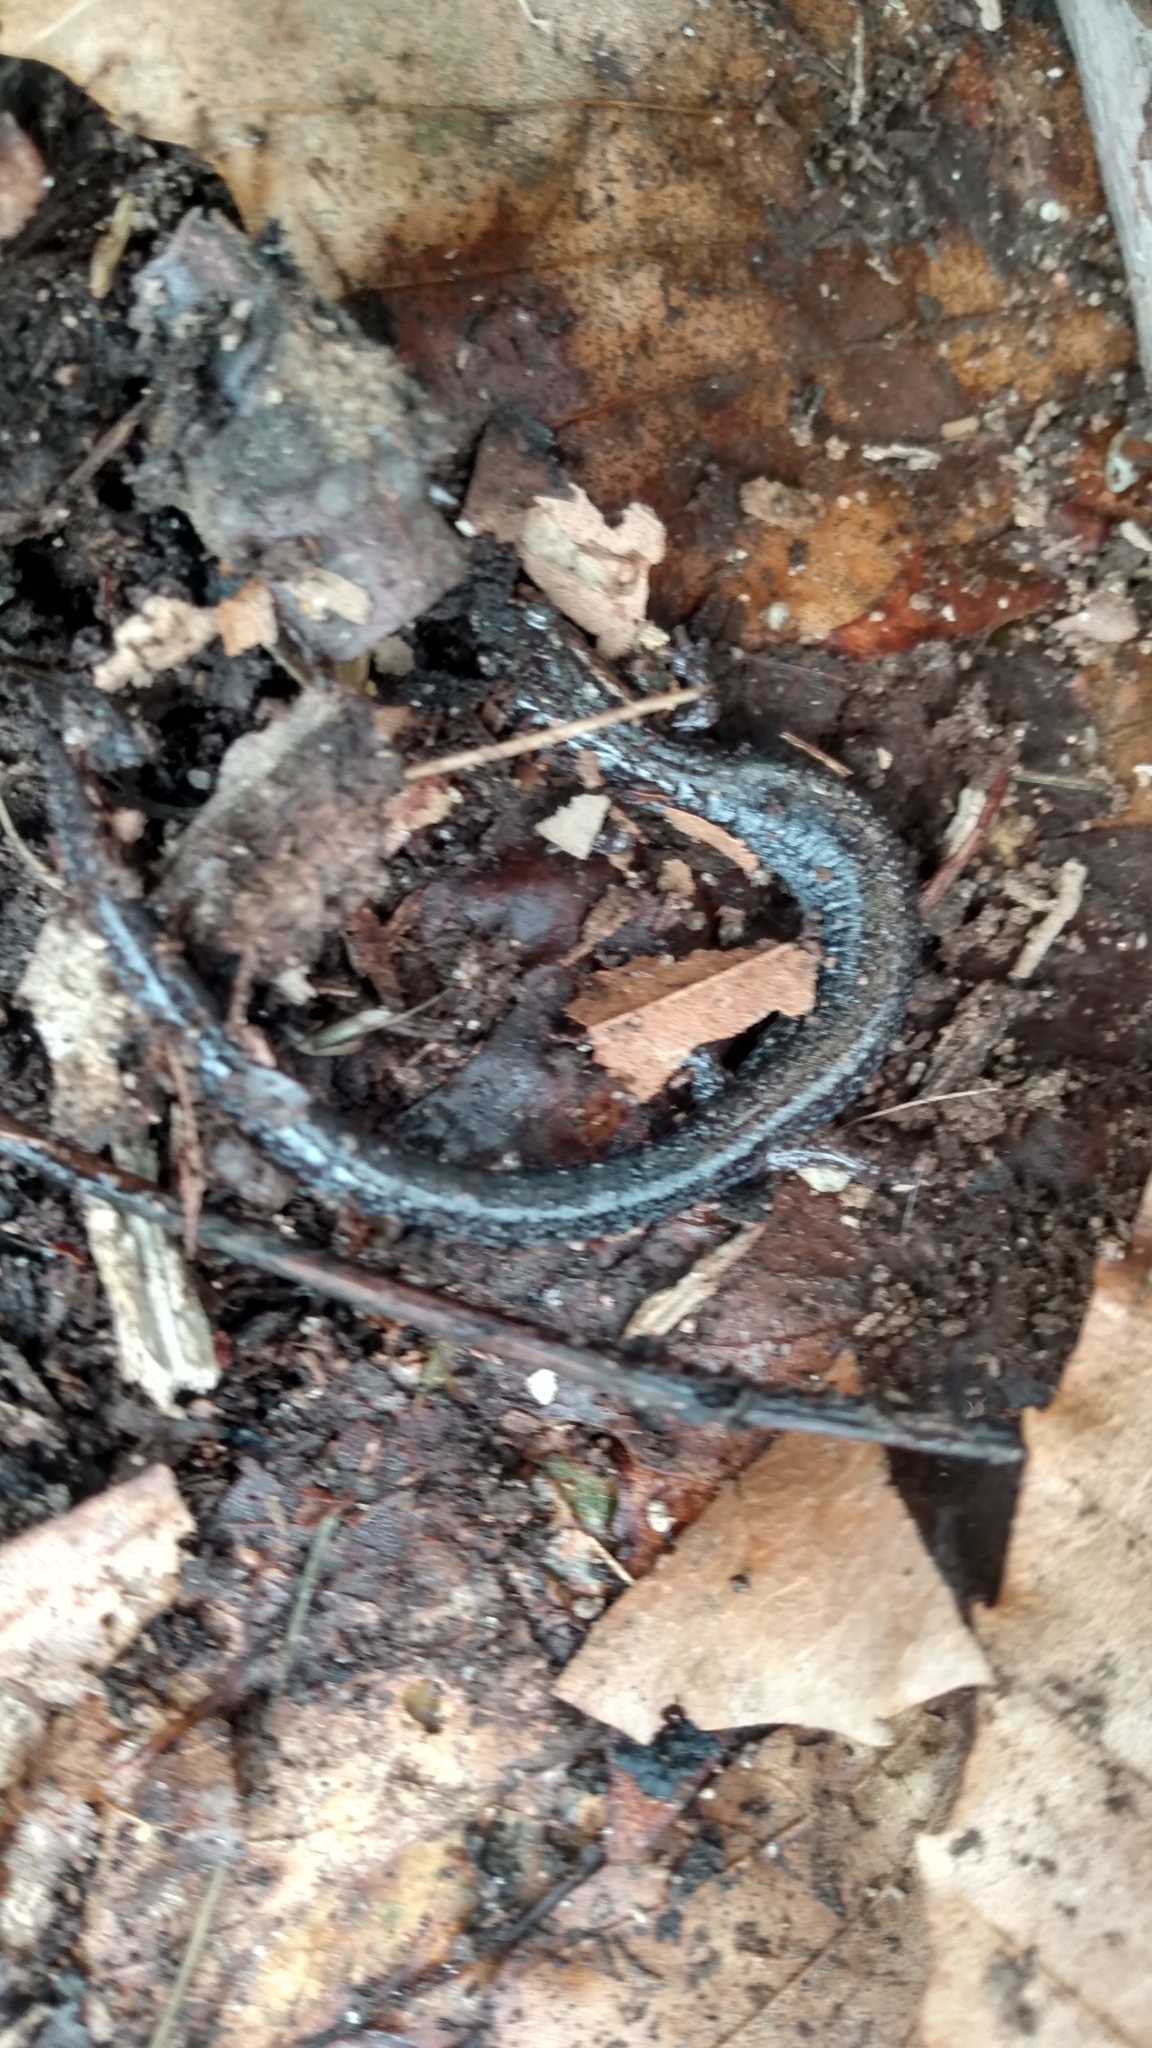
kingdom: Animalia
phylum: Chordata
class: Amphibia
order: Caudata
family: Plethodontidae
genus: Plethodon
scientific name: Plethodon cinereus
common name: Redback salamander
